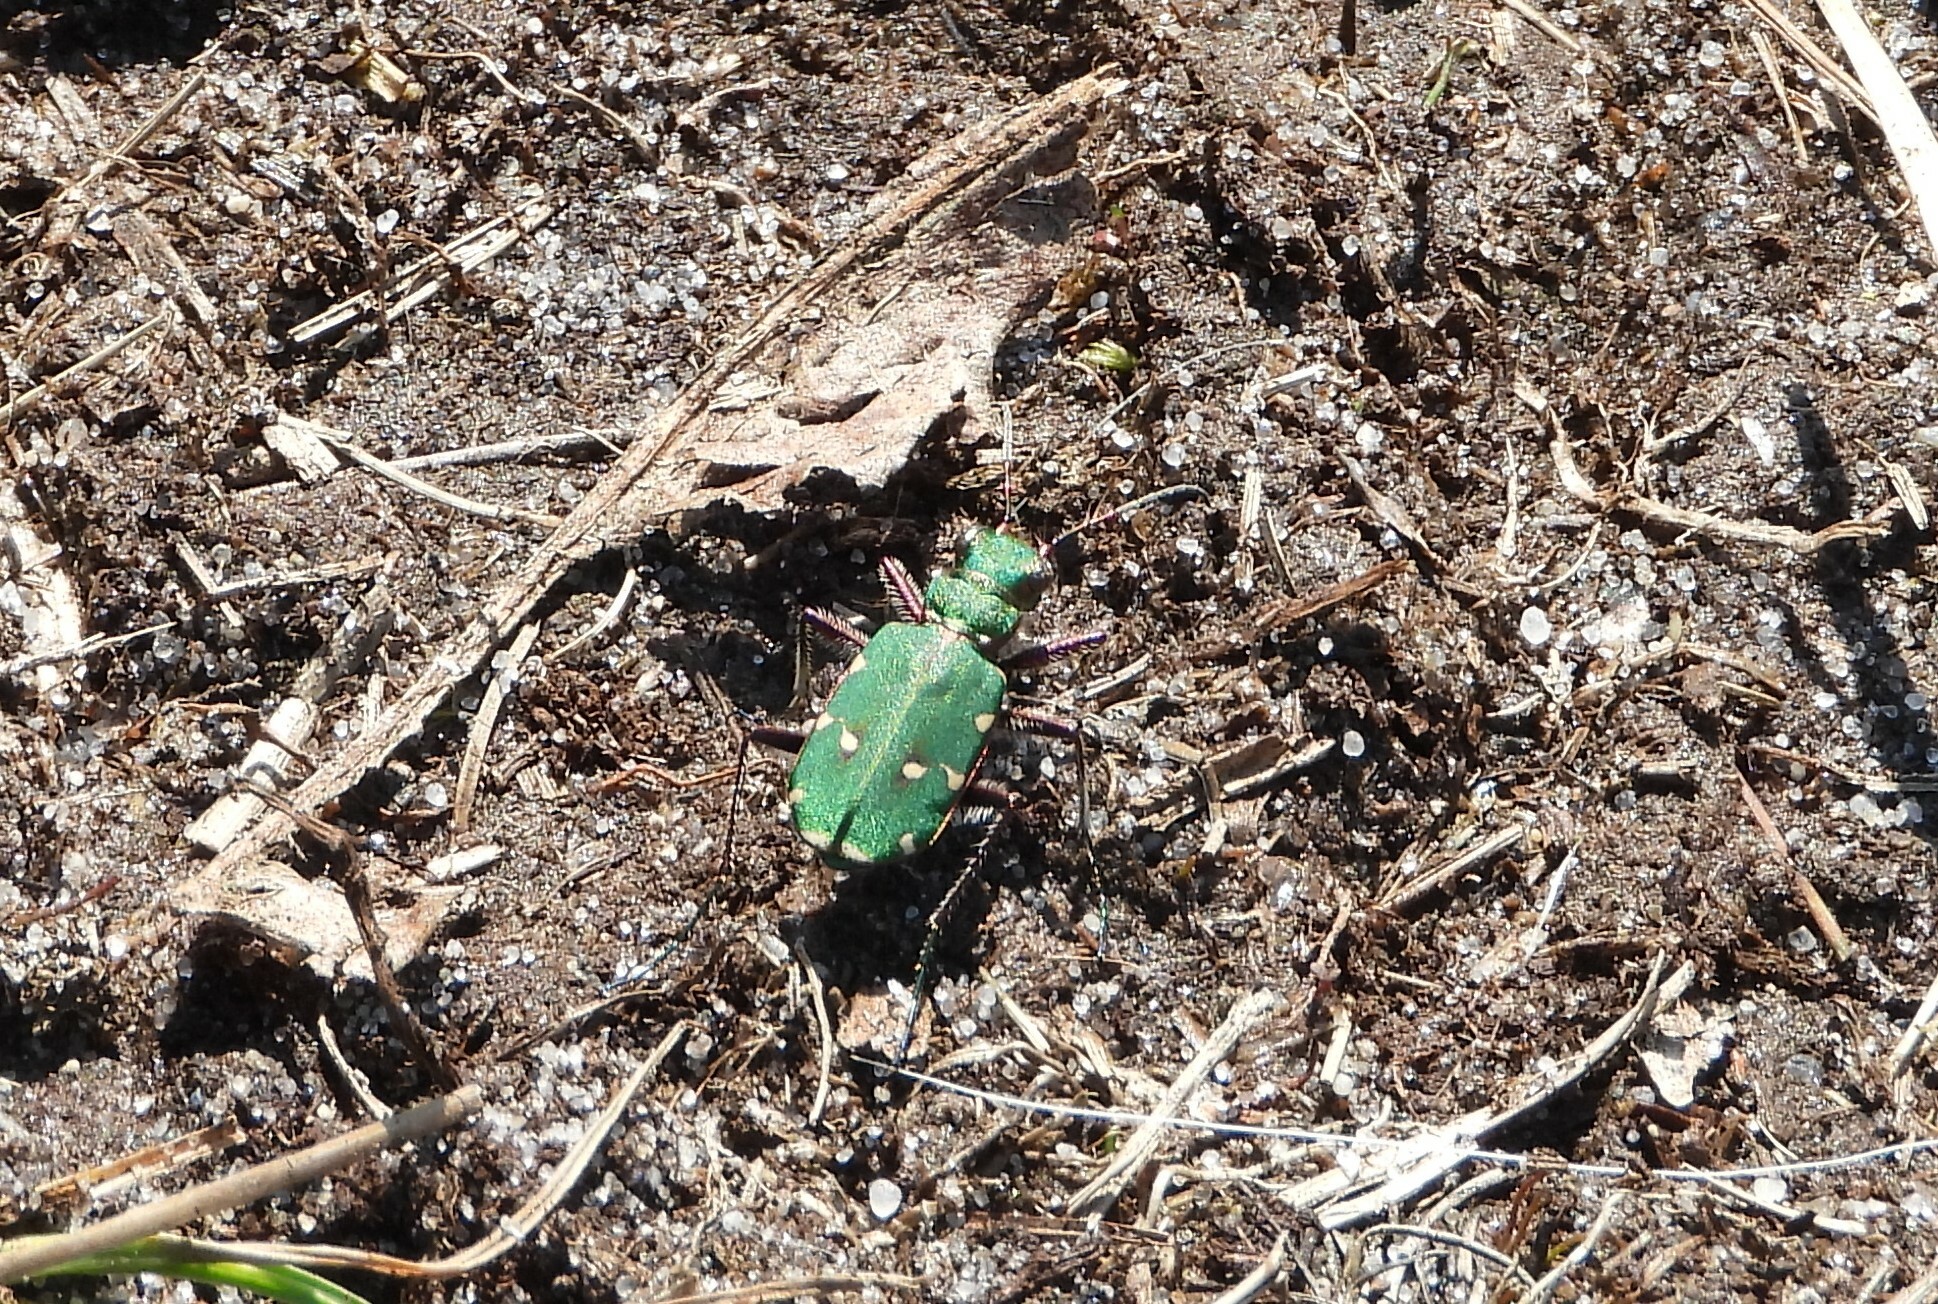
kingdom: Animalia
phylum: Arthropoda
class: Insecta
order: Coleoptera
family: Carabidae
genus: Cicindela
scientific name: Cicindela campestris
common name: Common tiger beetle
